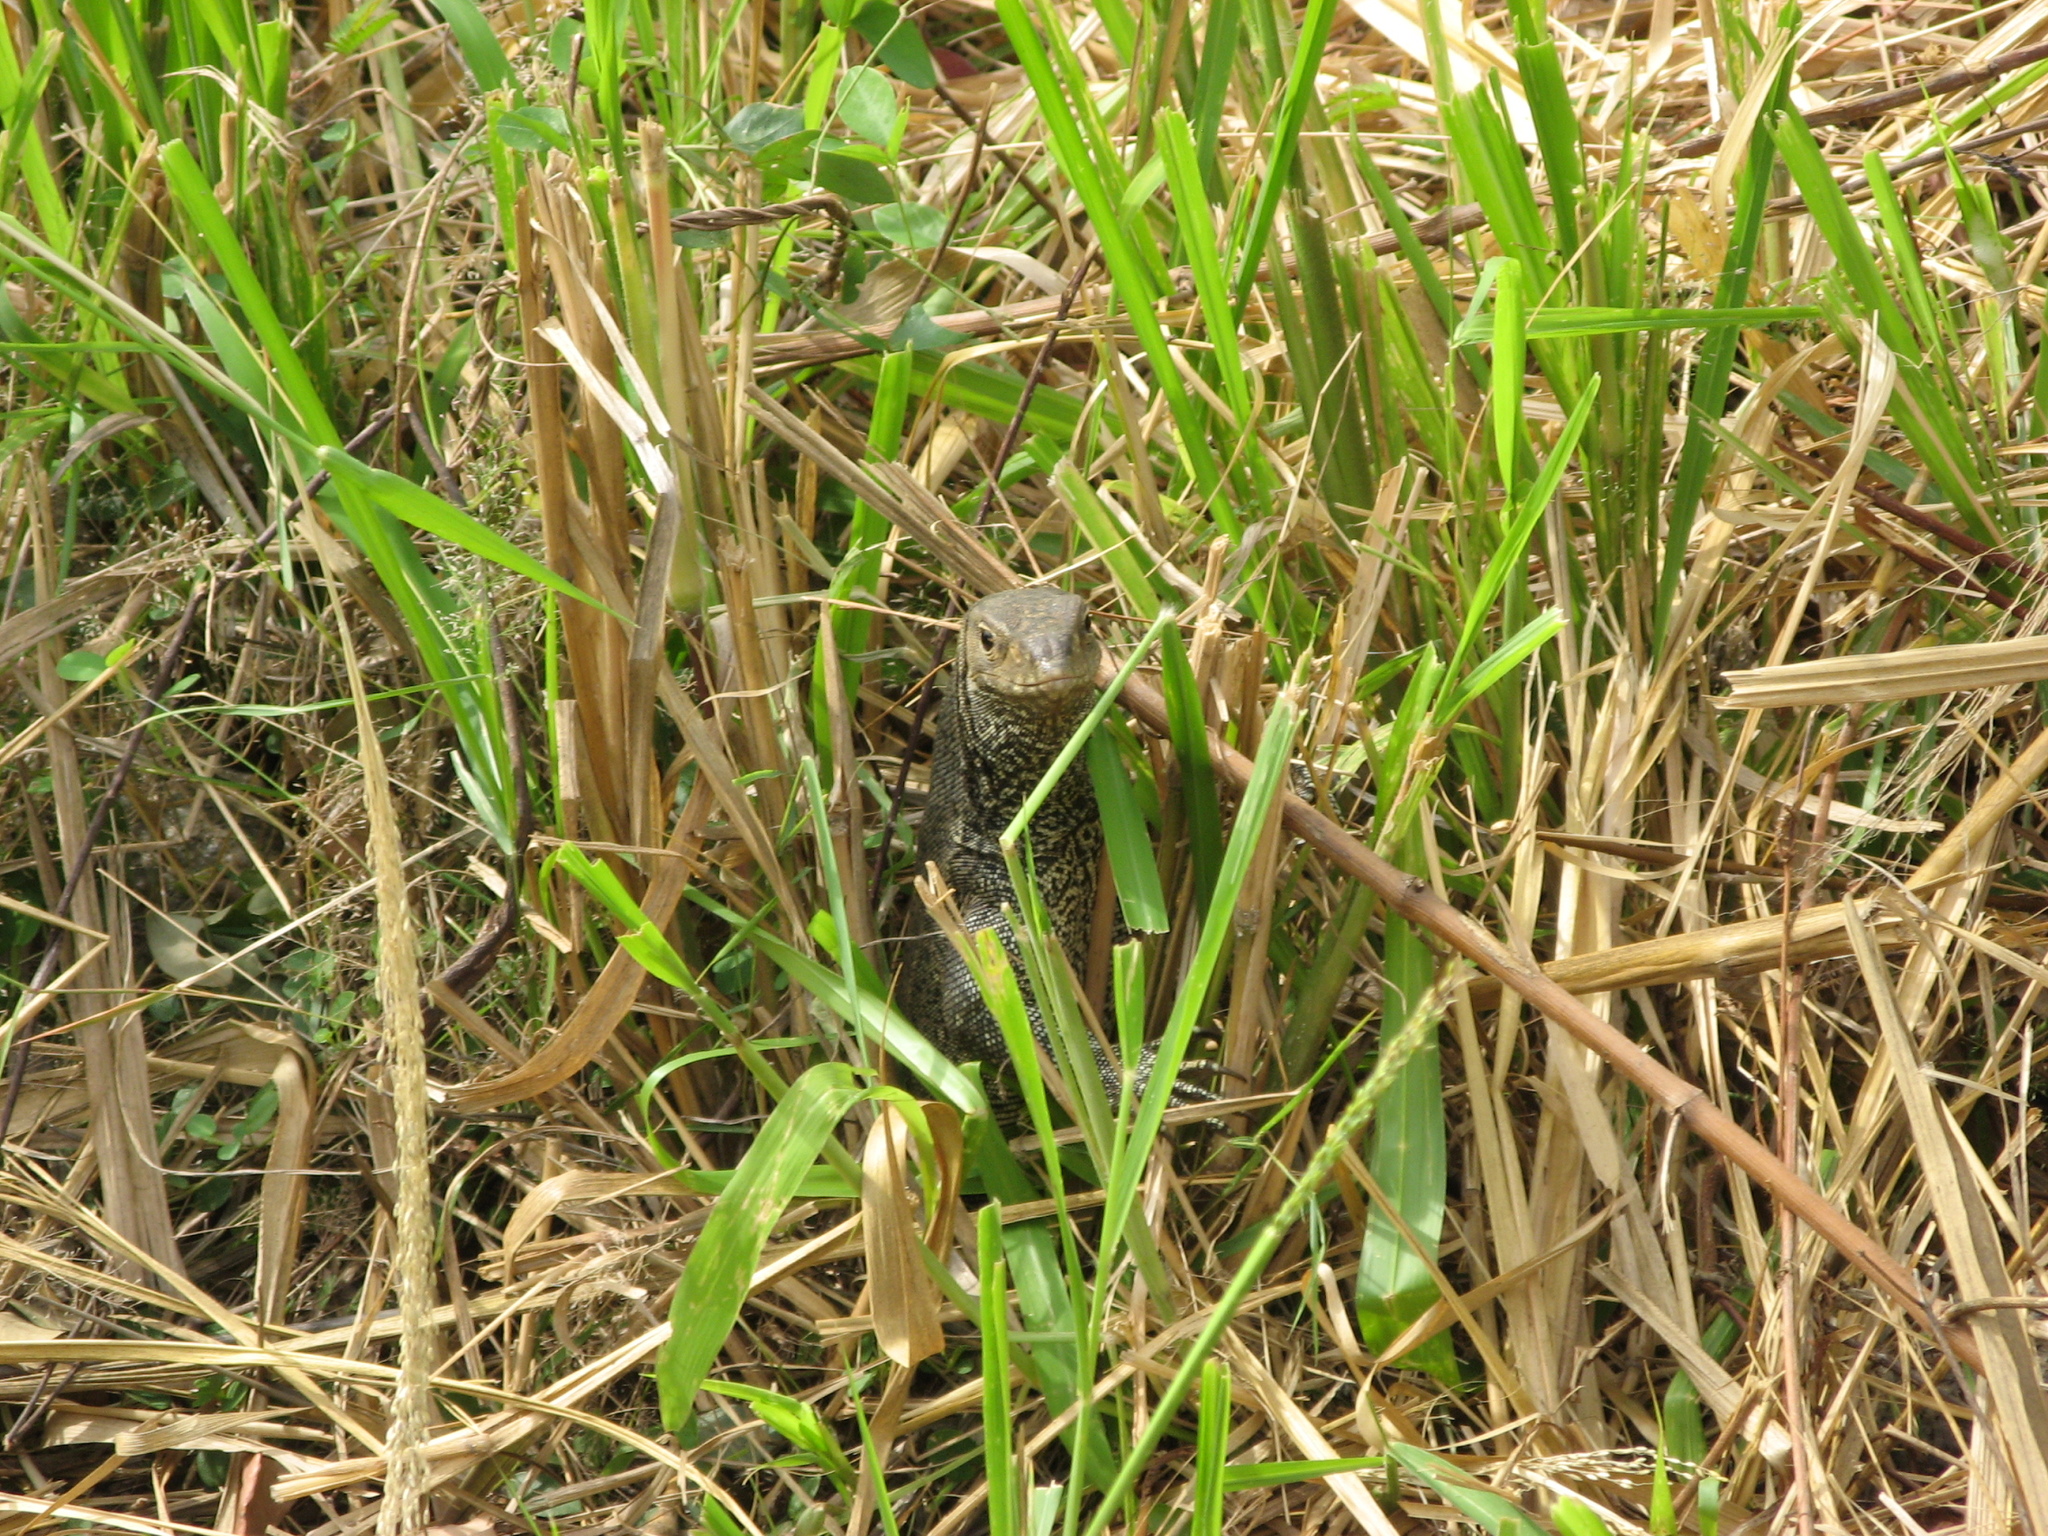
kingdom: Animalia
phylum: Chordata
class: Squamata
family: Varanidae
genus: Varanus
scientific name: Varanus bengalensis
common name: Bengal monitor
